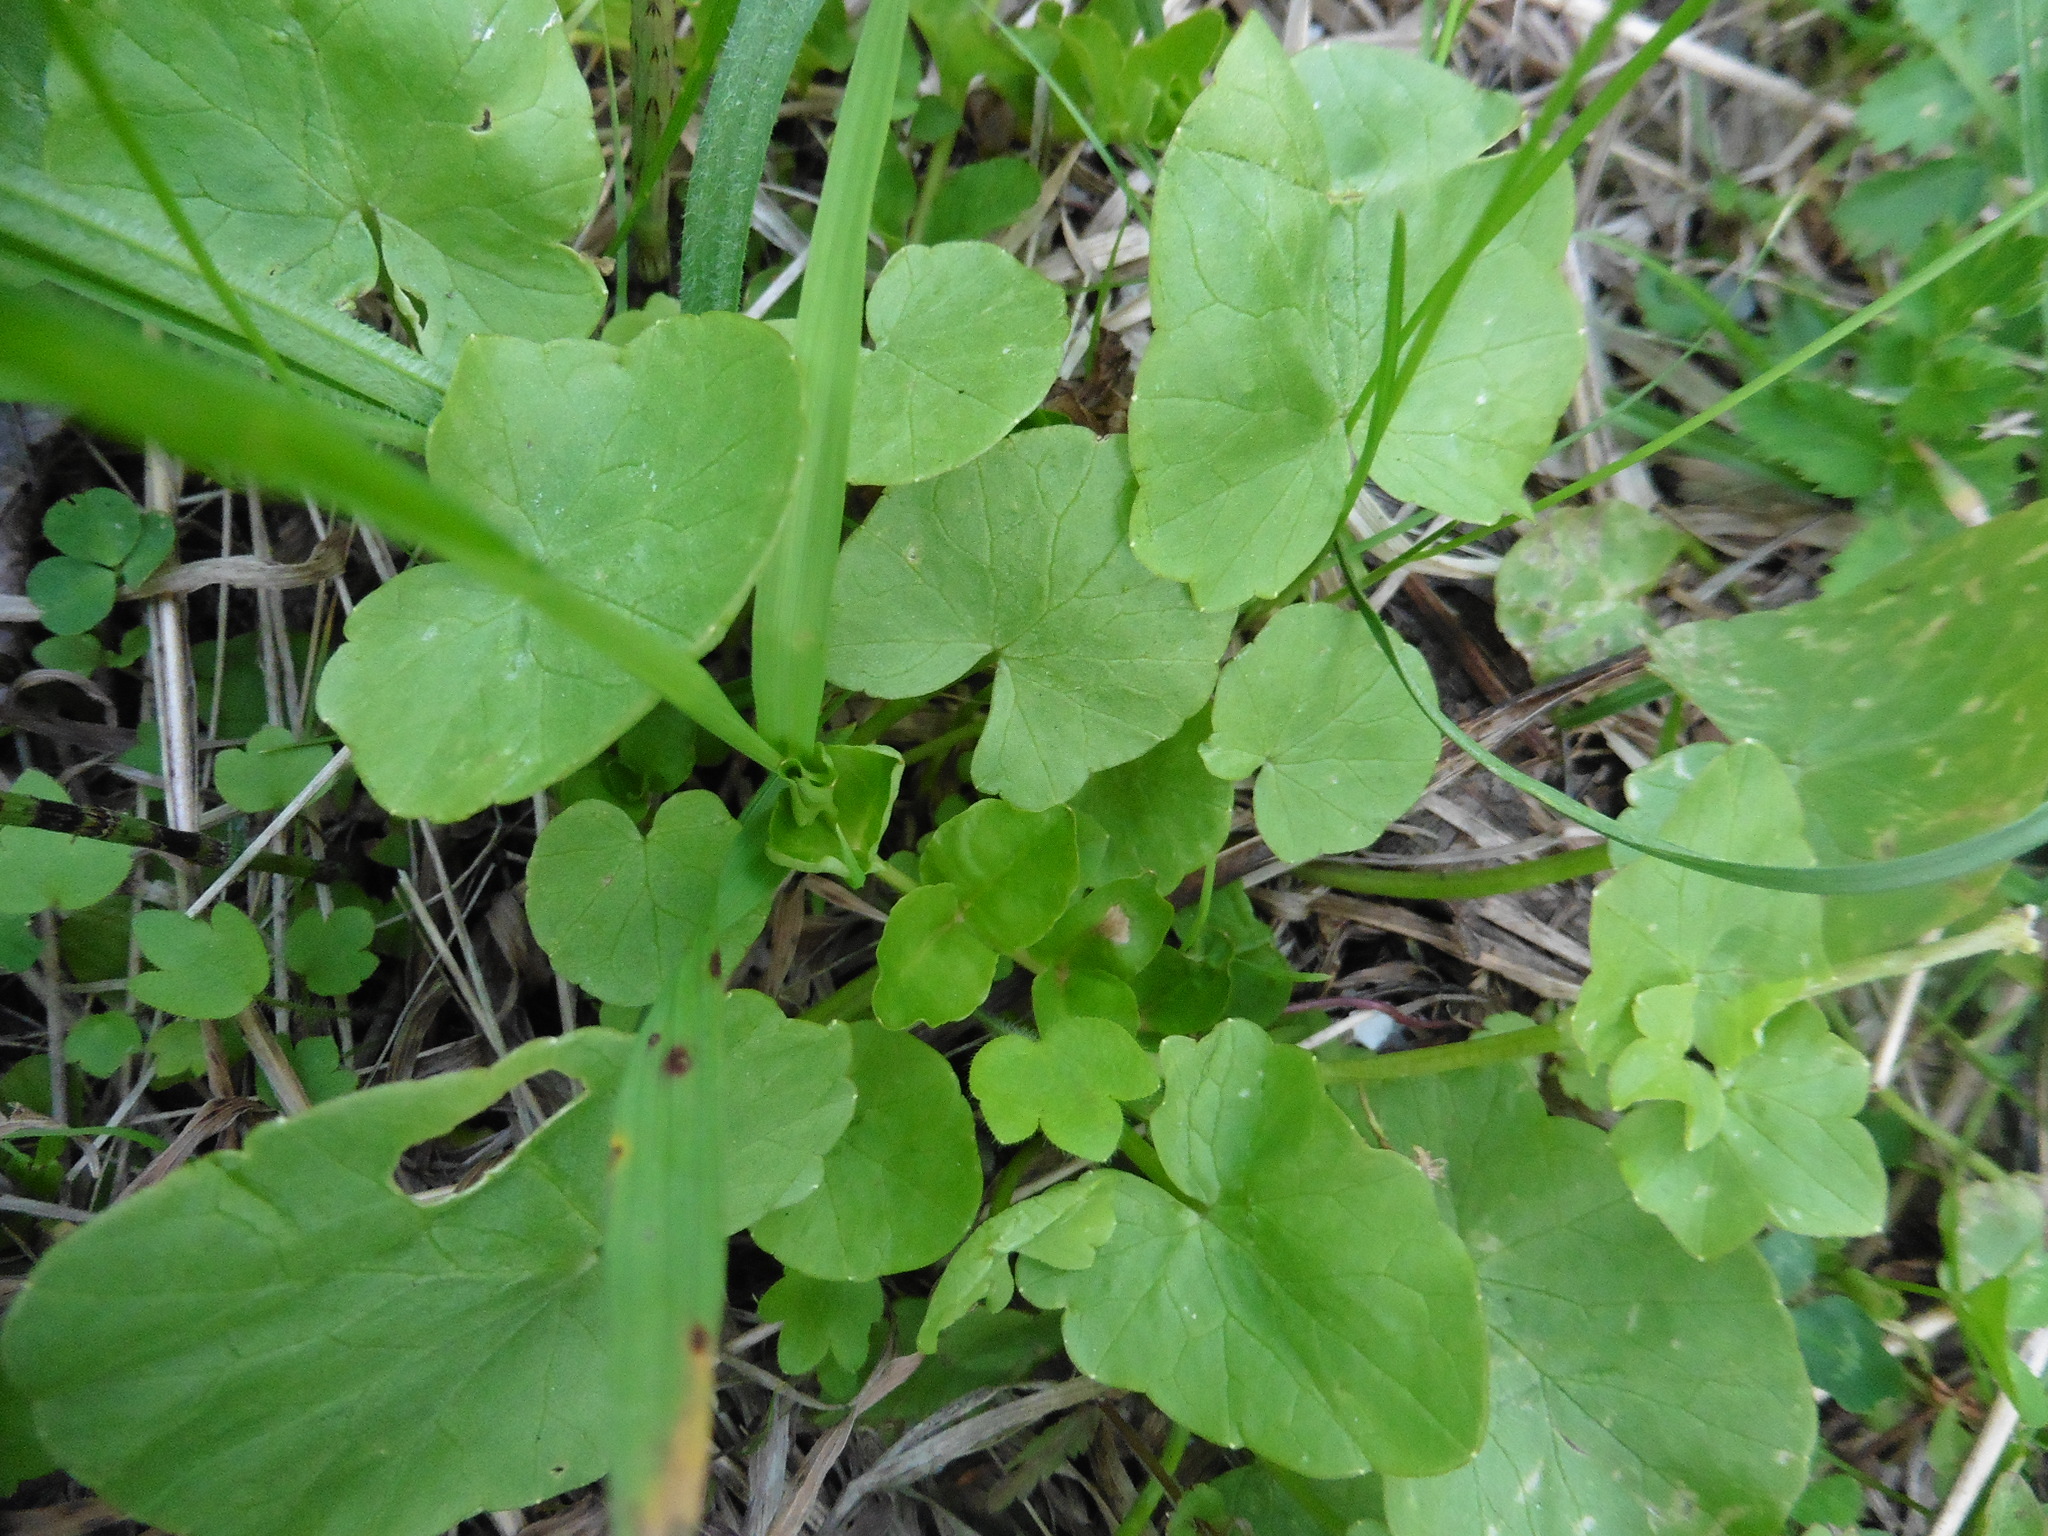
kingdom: Plantae
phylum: Tracheophyta
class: Magnoliopsida
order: Ranunculales
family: Ranunculaceae
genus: Ficaria
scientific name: Ficaria verna
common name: Lesser celandine
